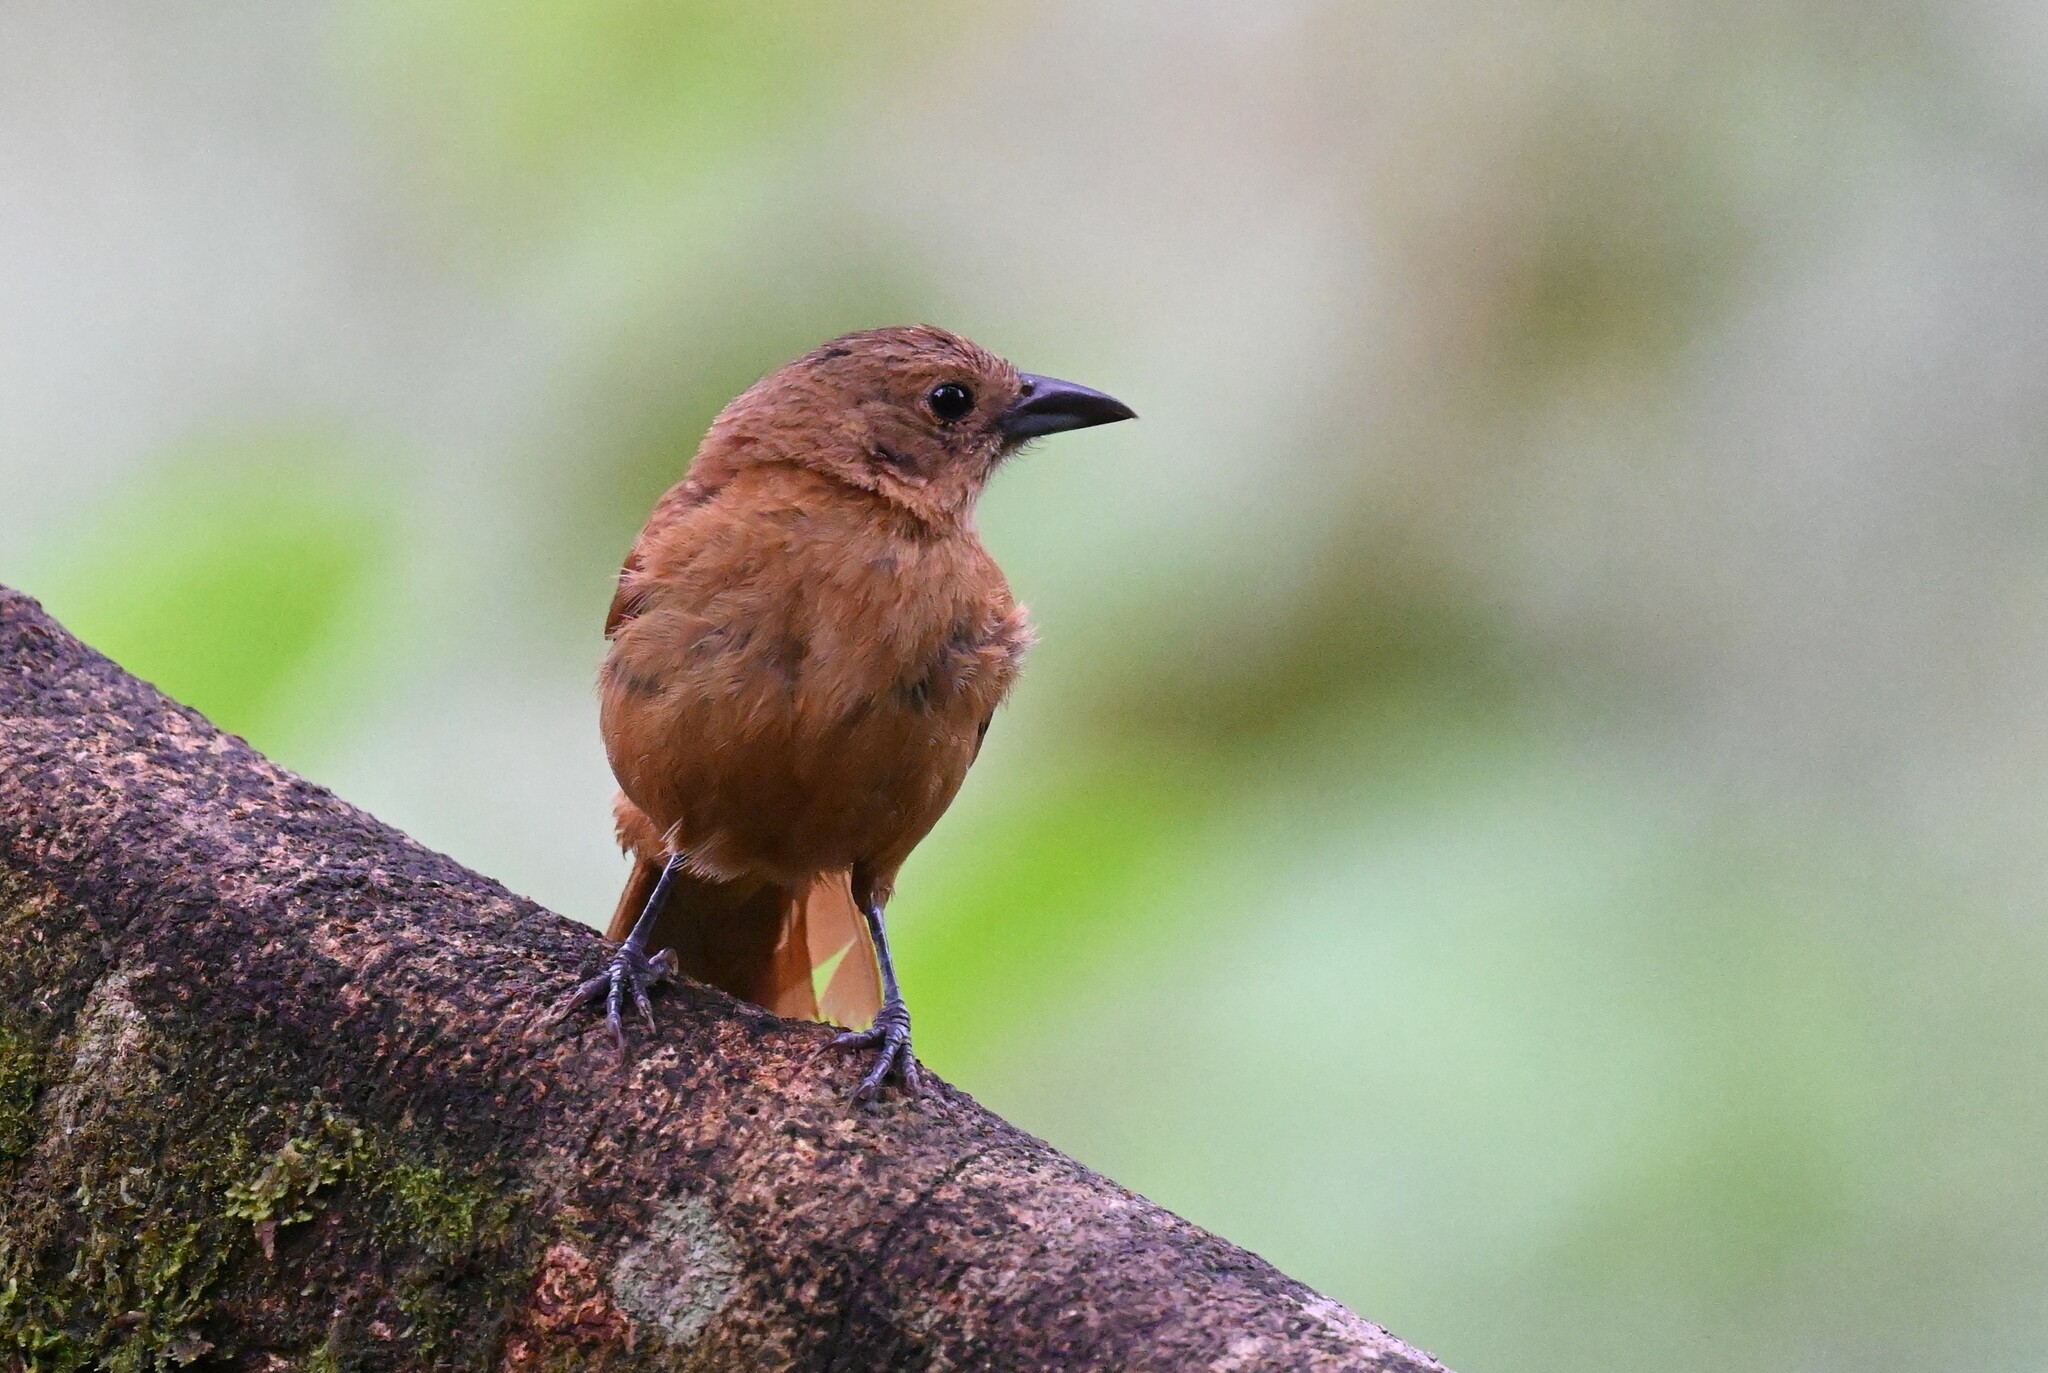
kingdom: Animalia
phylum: Chordata
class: Aves
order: Passeriformes
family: Thraupidae
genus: Tachyphonus
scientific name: Tachyphonus rufus
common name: White-lined tanager
